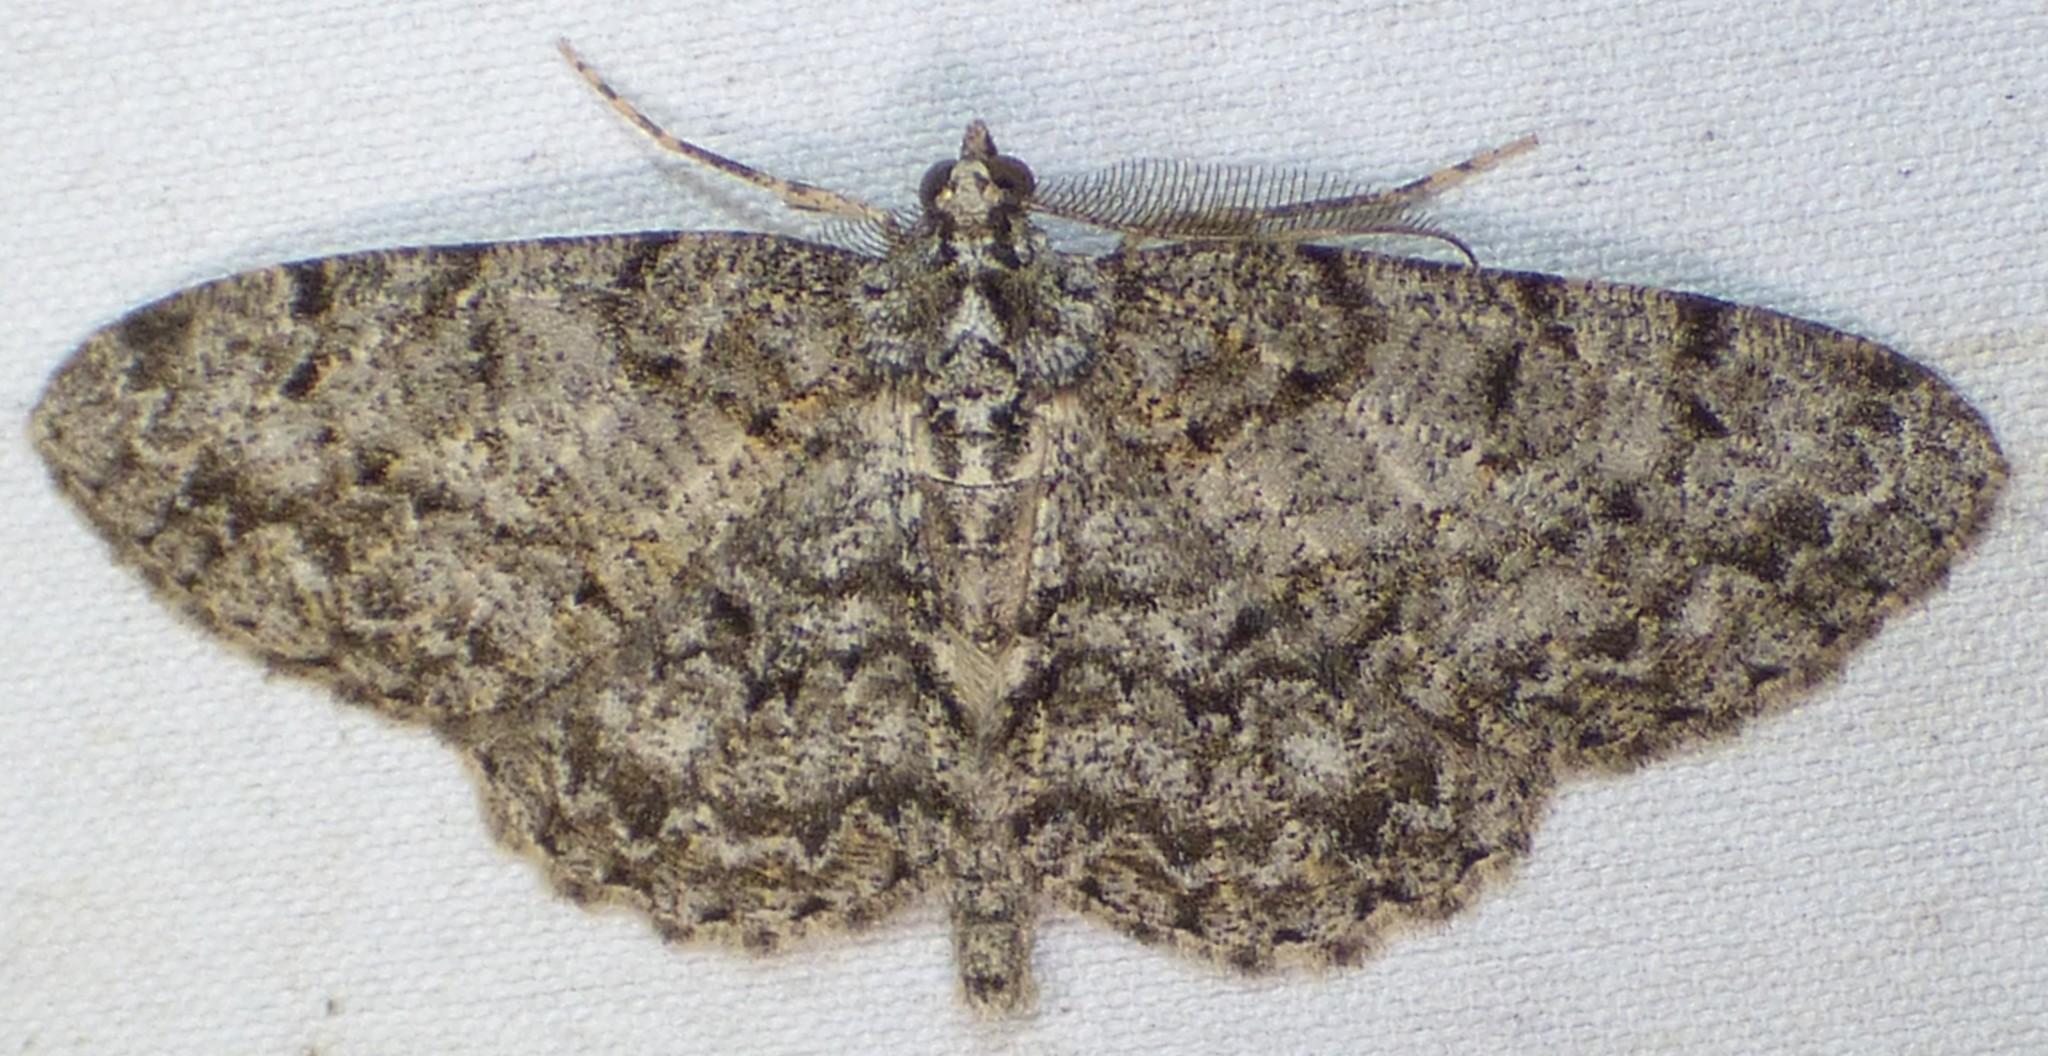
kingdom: Animalia
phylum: Arthropoda
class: Insecta
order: Lepidoptera
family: Geometridae
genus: Protoboarmia
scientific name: Protoboarmia porcelaria
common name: Porcelain gray
